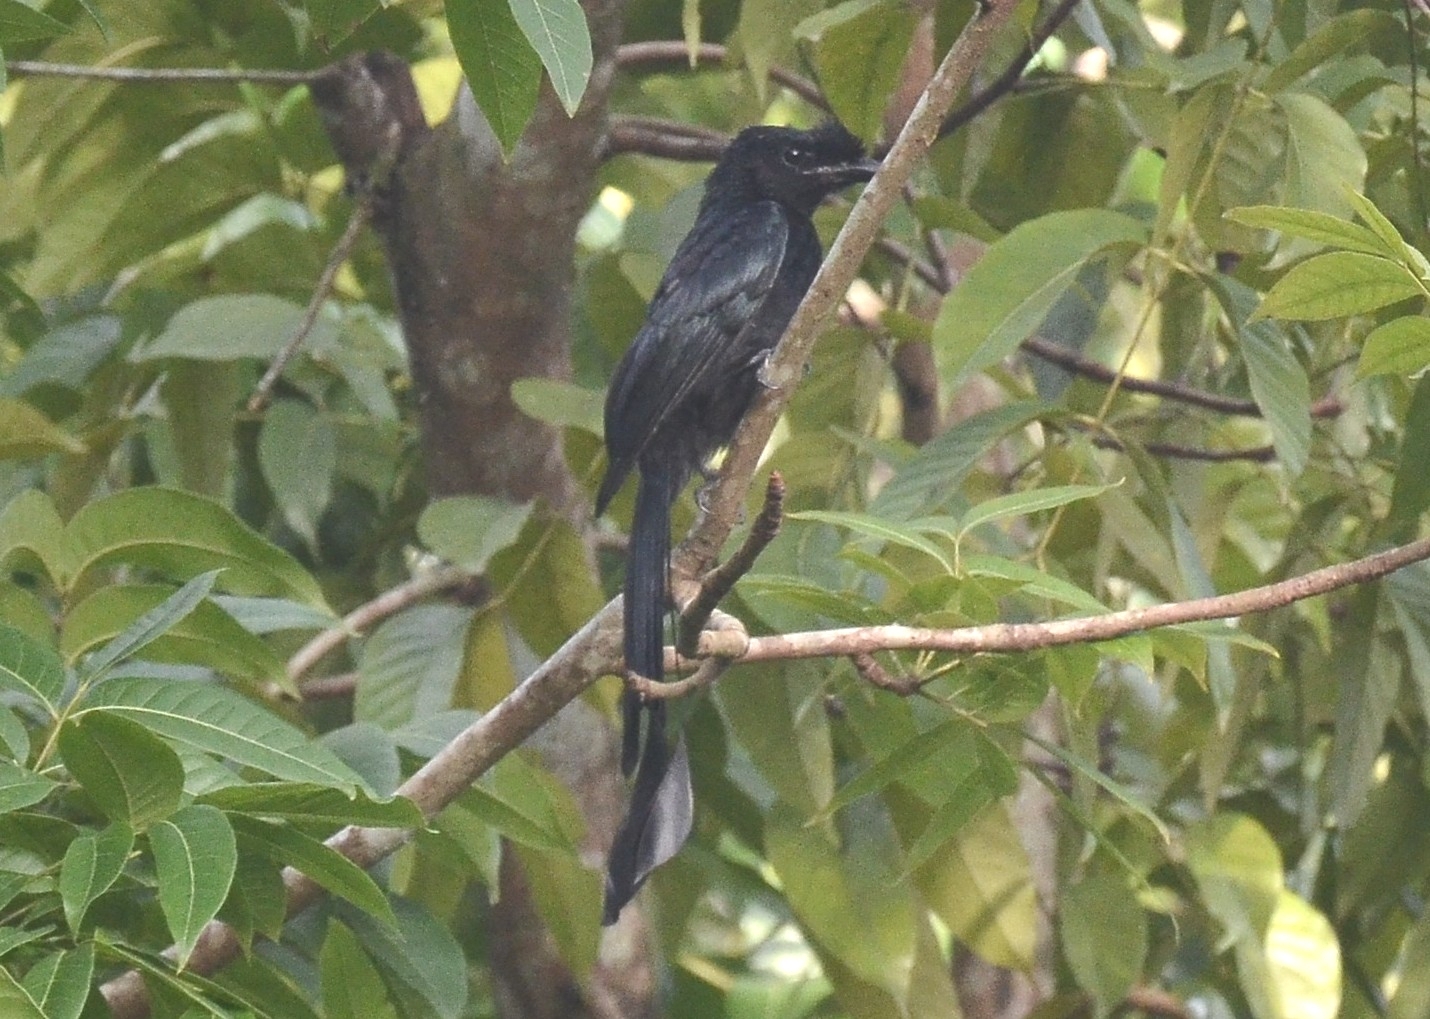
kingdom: Animalia
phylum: Chordata
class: Aves
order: Passeriformes
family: Dicruridae
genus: Dicrurus
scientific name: Dicrurus paradiseus
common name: Greater racket-tailed drongo
